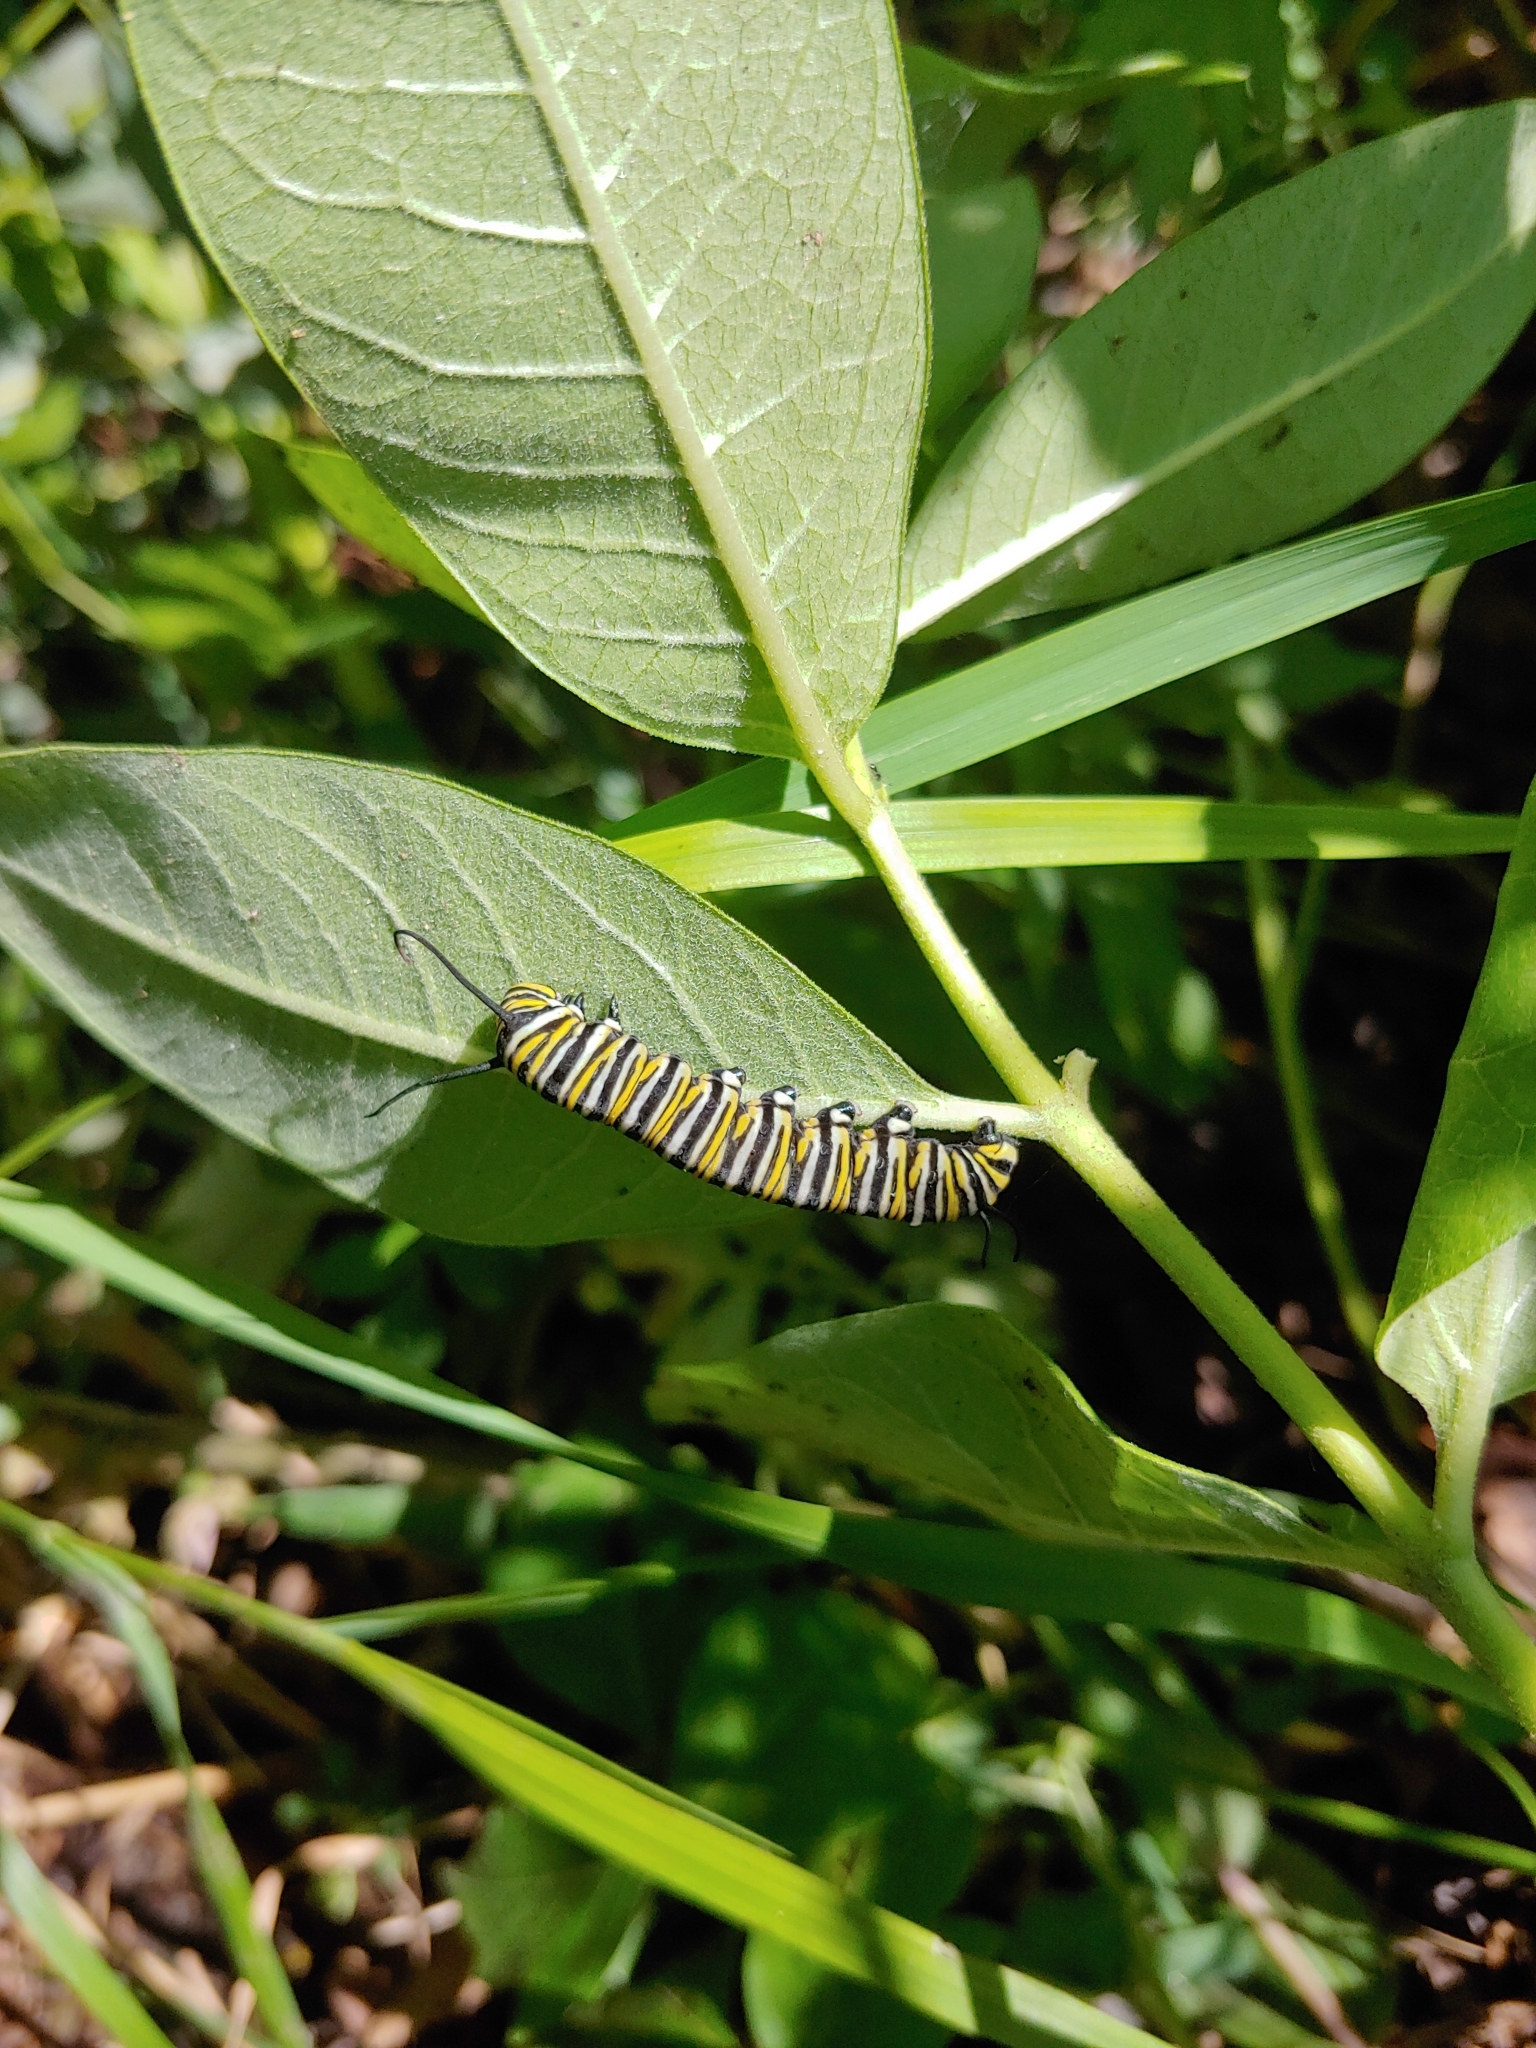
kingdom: Animalia
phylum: Arthropoda
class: Insecta
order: Lepidoptera
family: Nymphalidae
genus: Danaus
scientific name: Danaus plexippus
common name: Monarch
